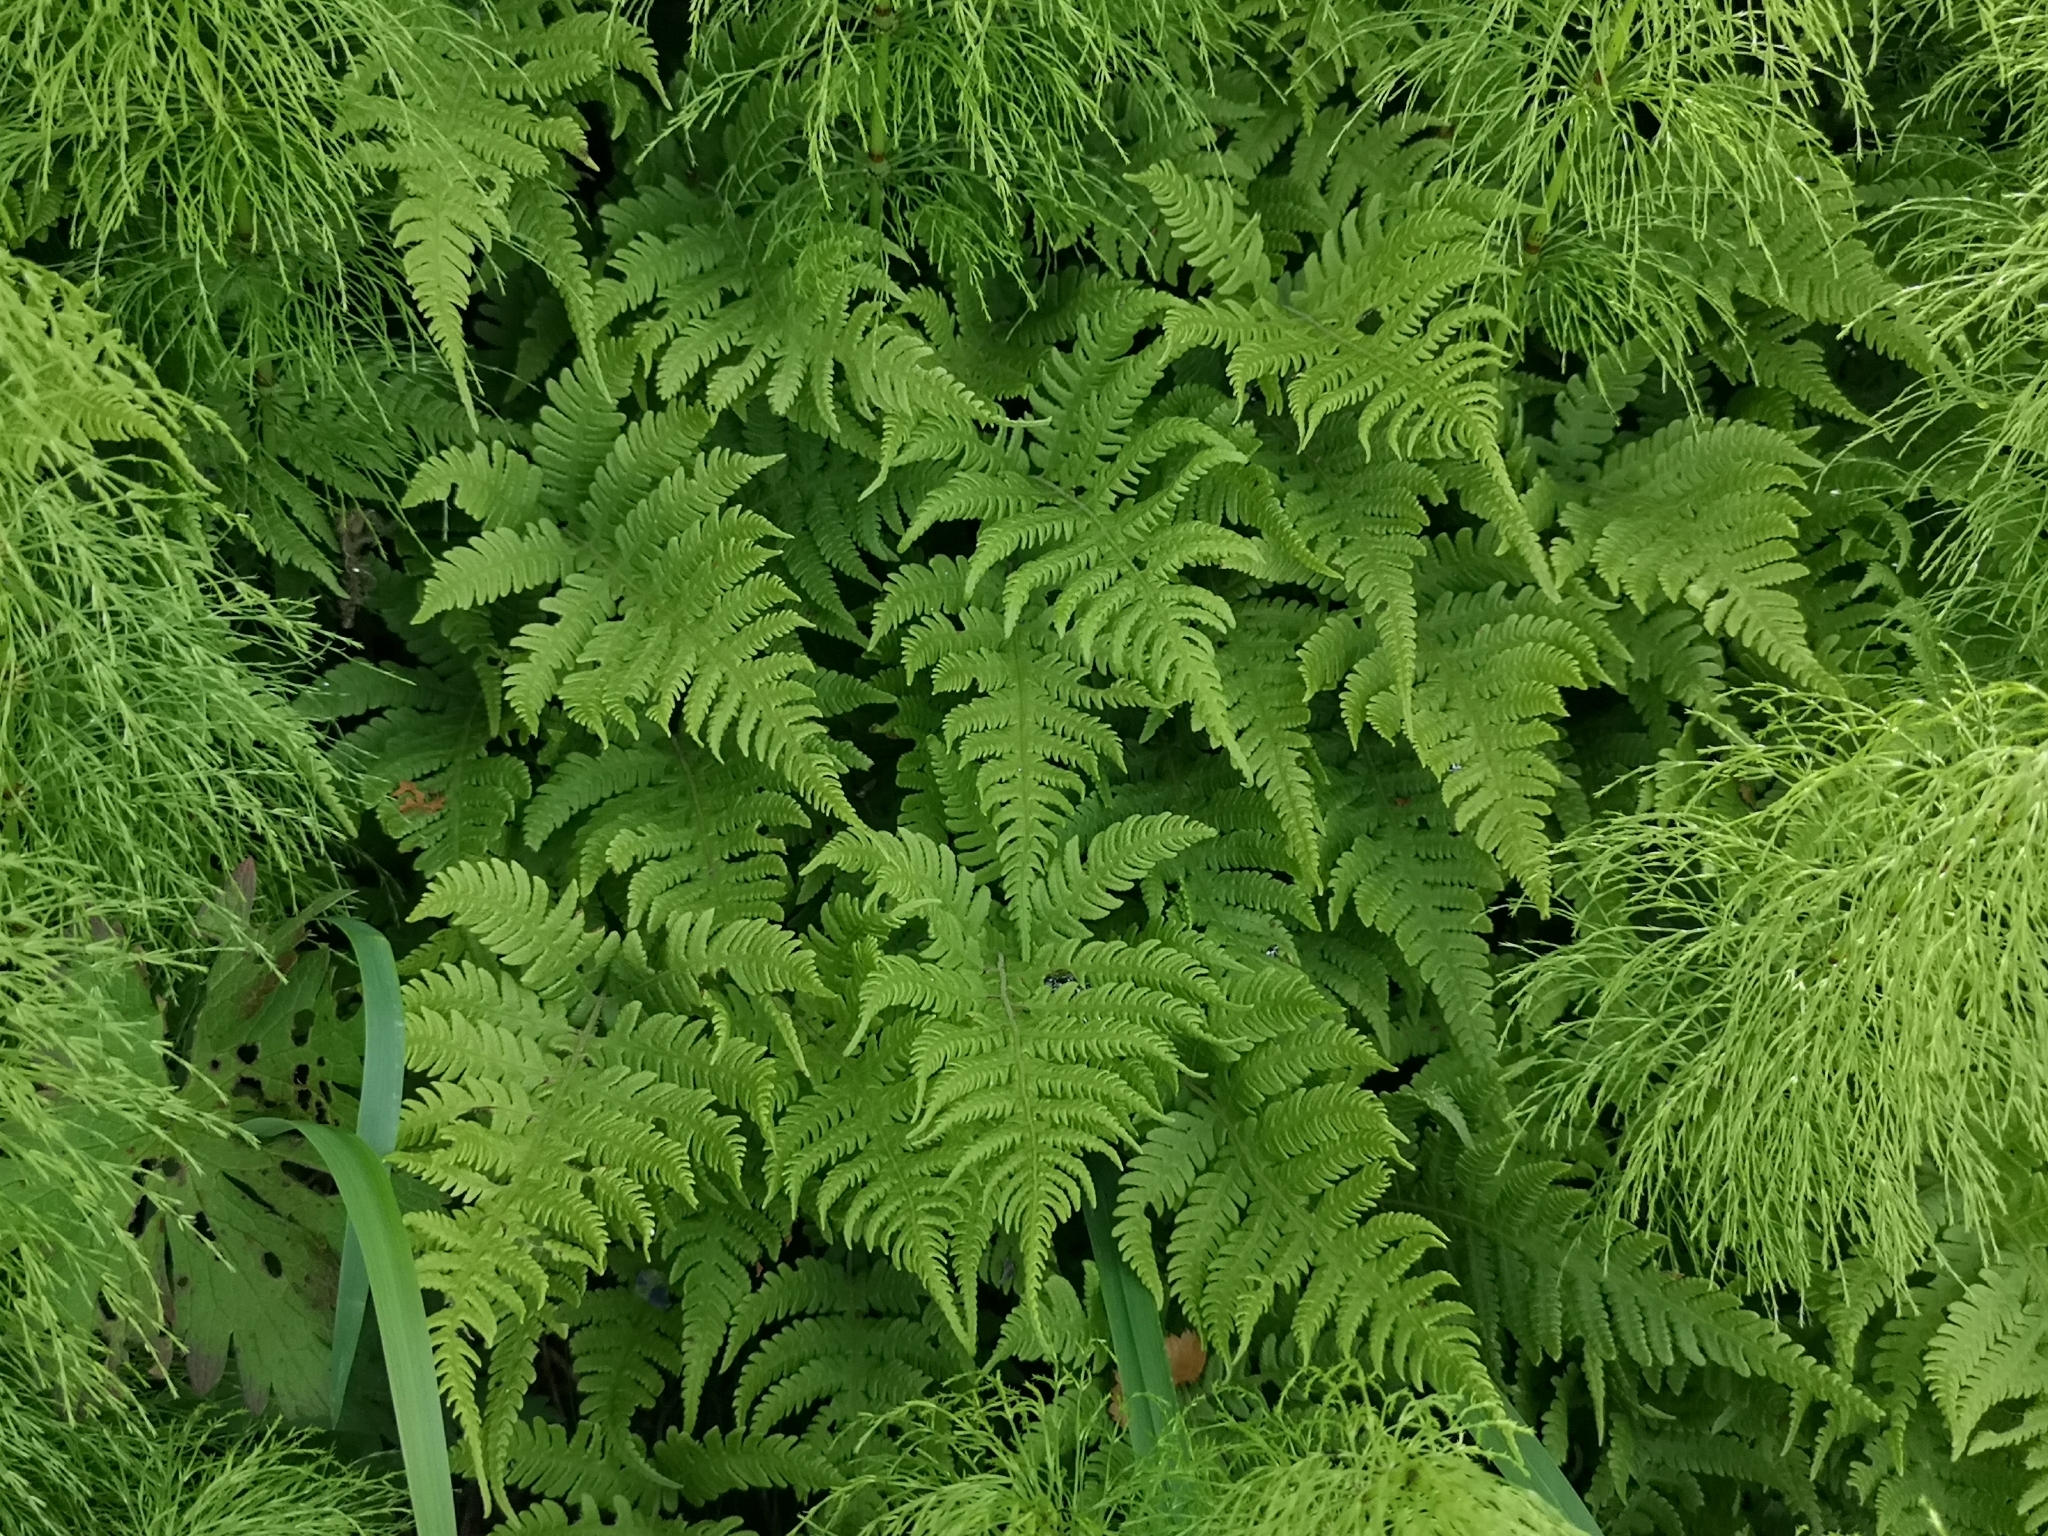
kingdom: Plantae
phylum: Tracheophyta
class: Polypodiopsida
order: Polypodiales
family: Thelypteridaceae
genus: Phegopteris
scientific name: Phegopteris connectilis
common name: Beech fern
